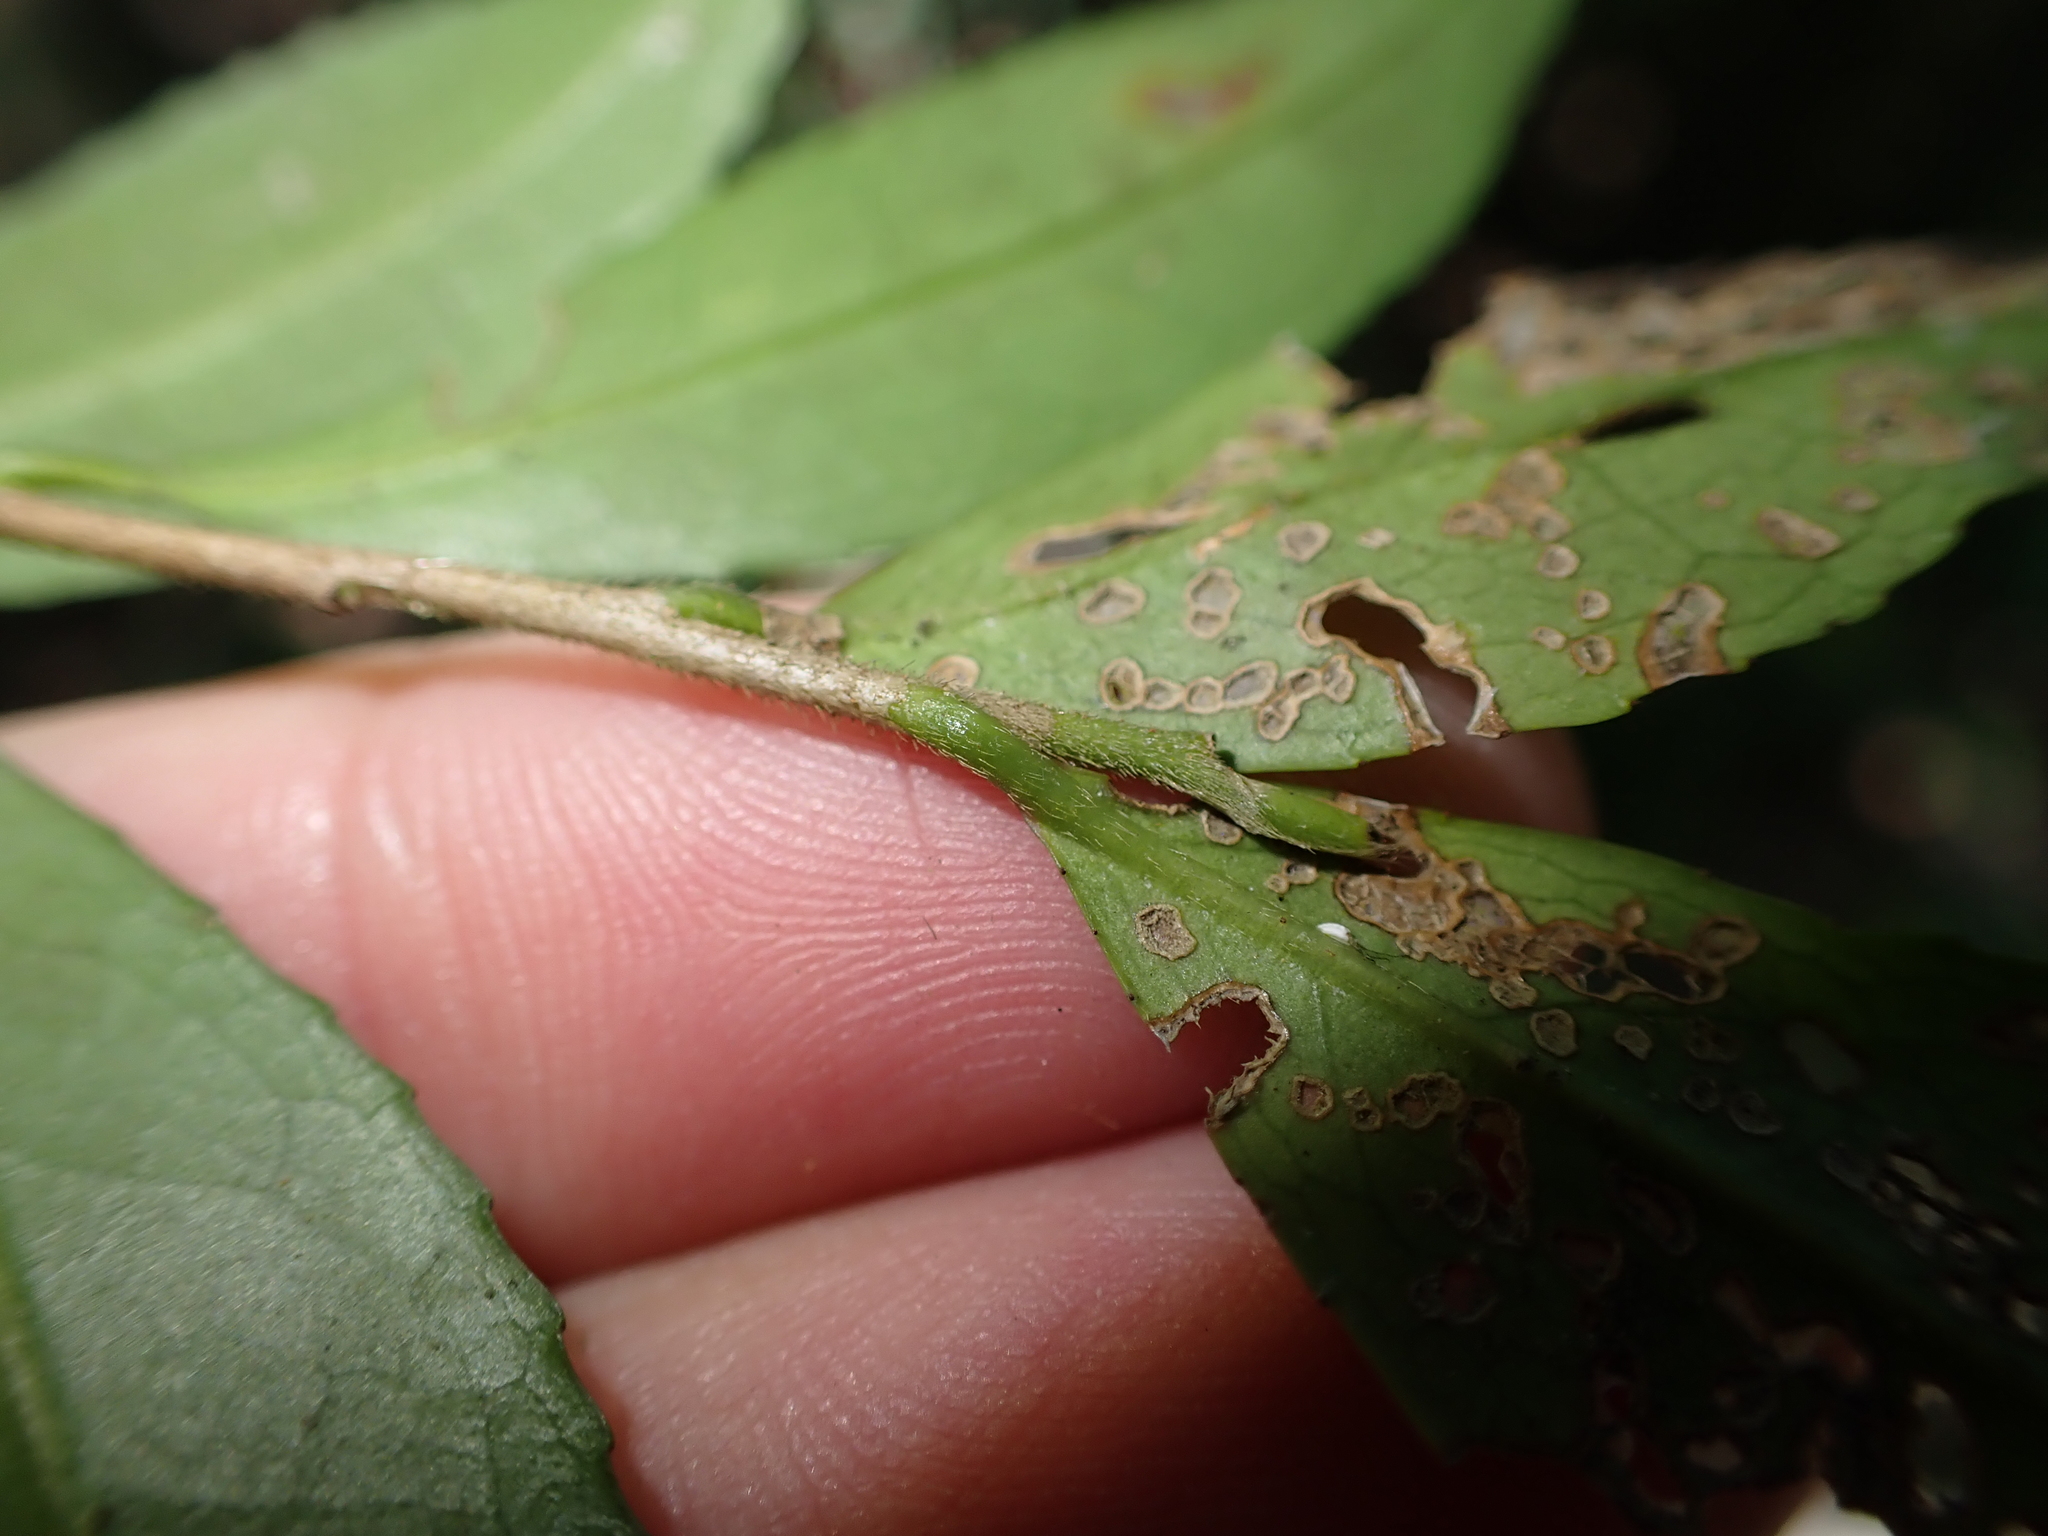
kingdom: Plantae
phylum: Tracheophyta
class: Magnoliopsida
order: Ericales
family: Pentaphylacaceae
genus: Eurya
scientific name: Eurya gnaphalocarpa
